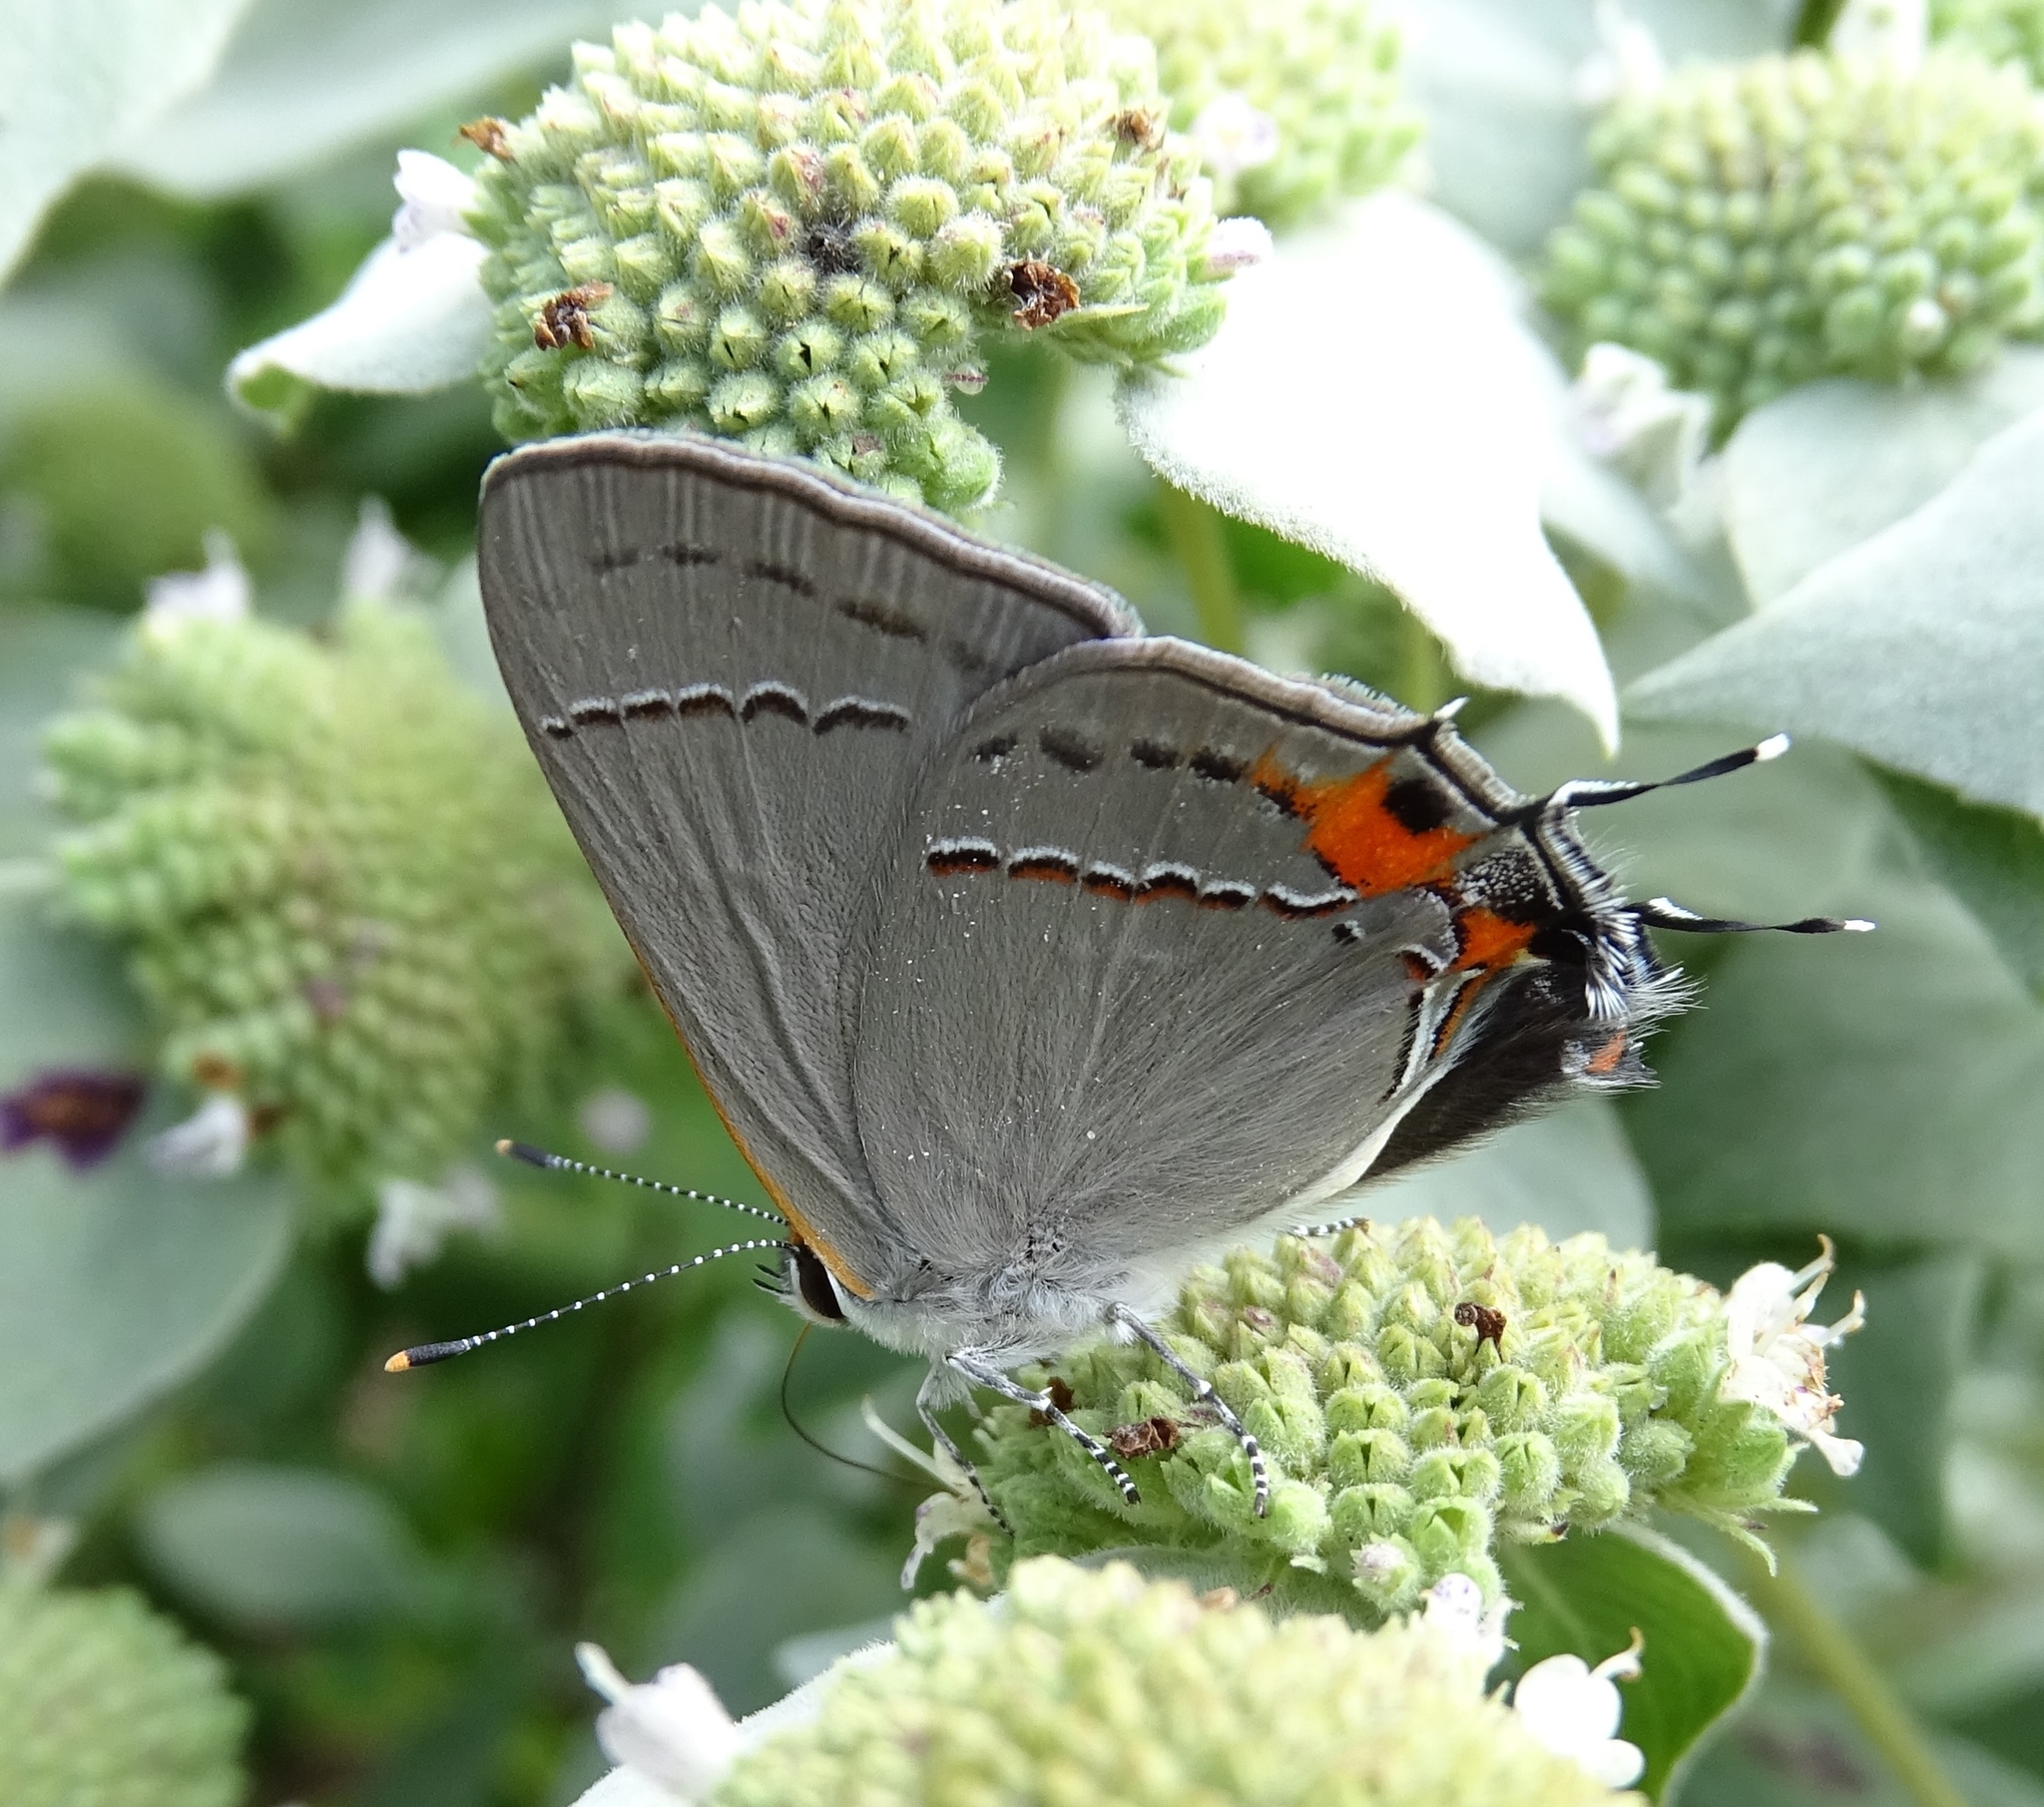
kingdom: Animalia
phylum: Arthropoda
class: Insecta
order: Lepidoptera
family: Lycaenidae
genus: Strymon
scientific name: Strymon melinus
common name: Gray hairstreak
